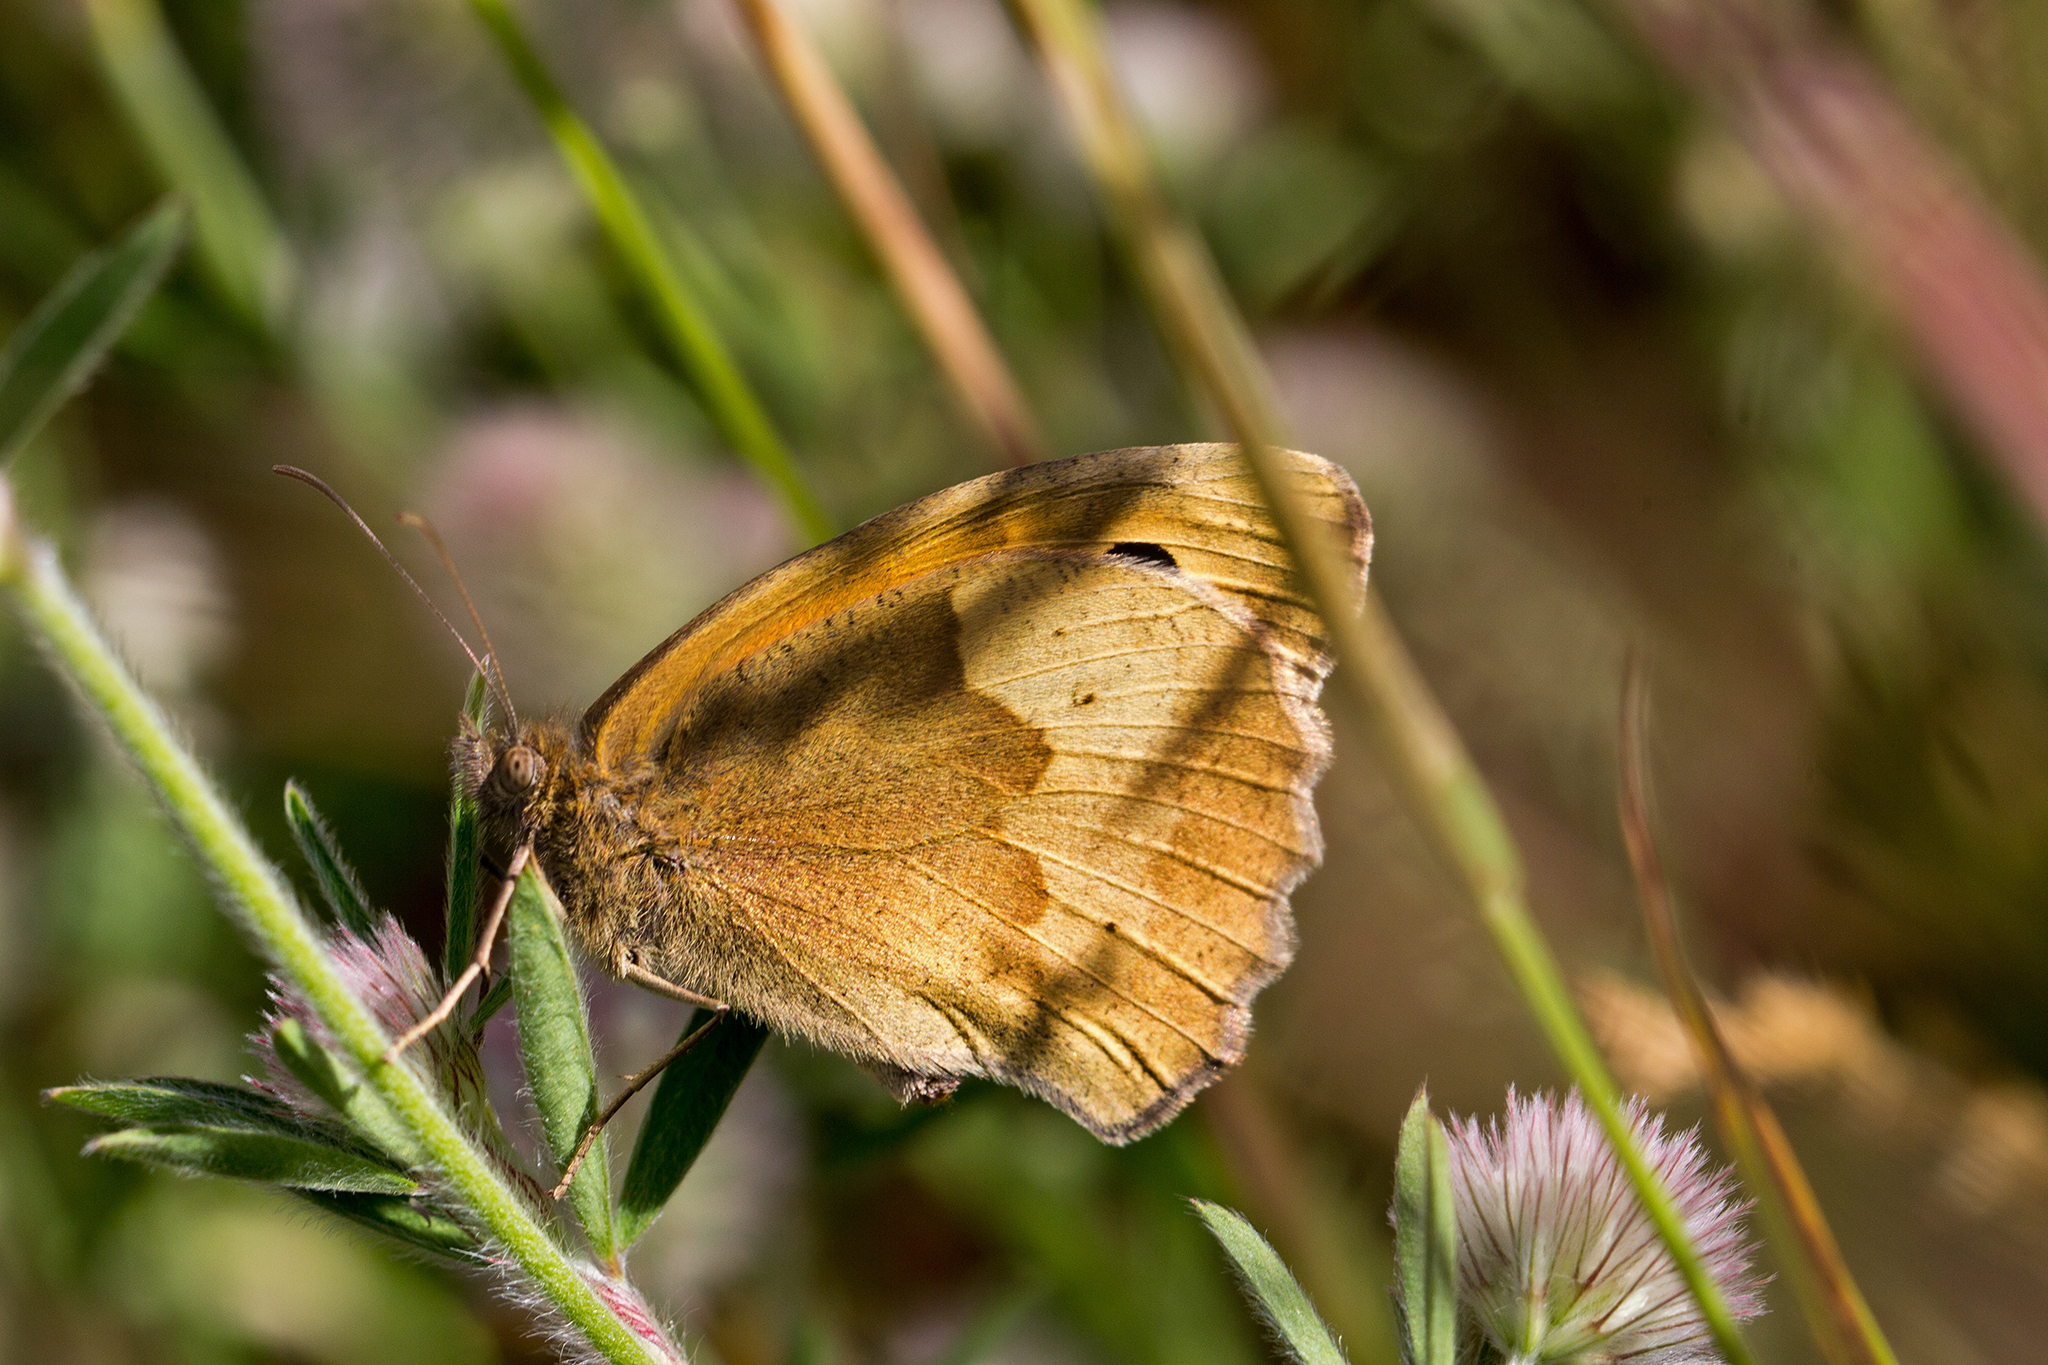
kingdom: Animalia
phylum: Arthropoda
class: Insecta
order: Lepidoptera
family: Nymphalidae
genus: Maniola
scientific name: Maniola jurtina
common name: Meadow brown
